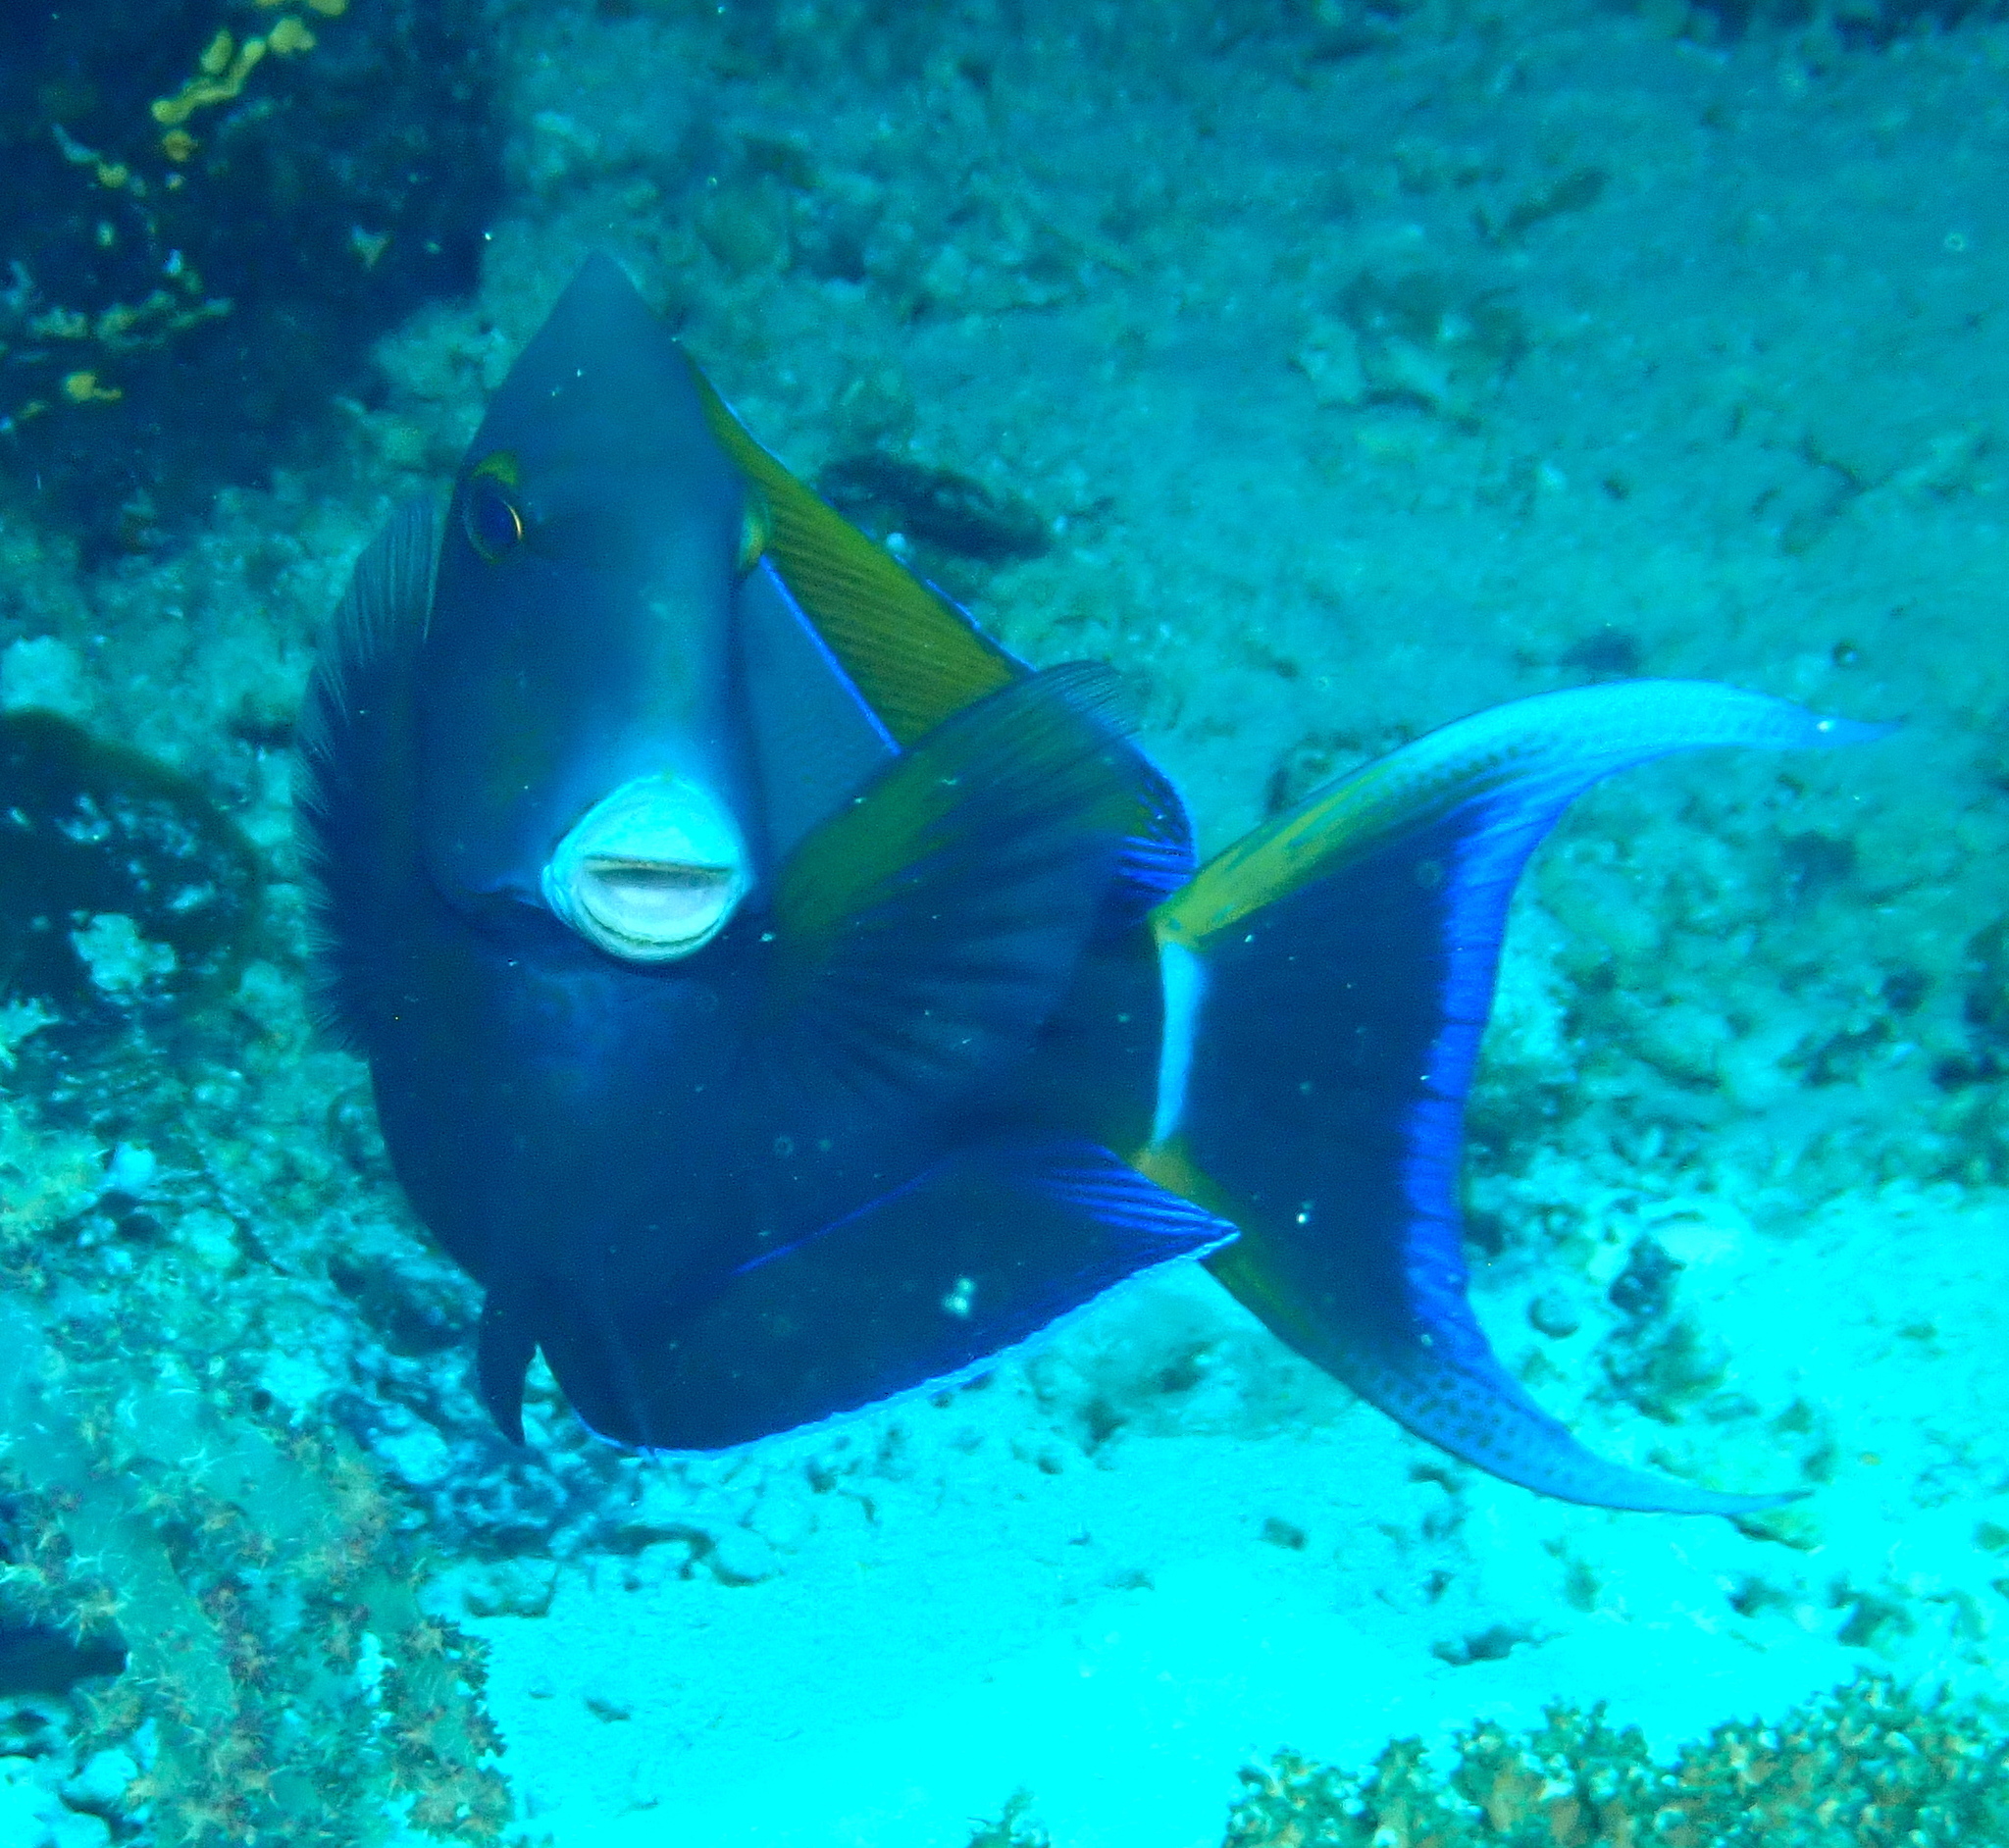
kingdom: Animalia
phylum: Chordata
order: Perciformes
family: Acanthuridae
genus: Acanthurus
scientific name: Acanthurus nigricauda
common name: Black-barred surgeonfish
